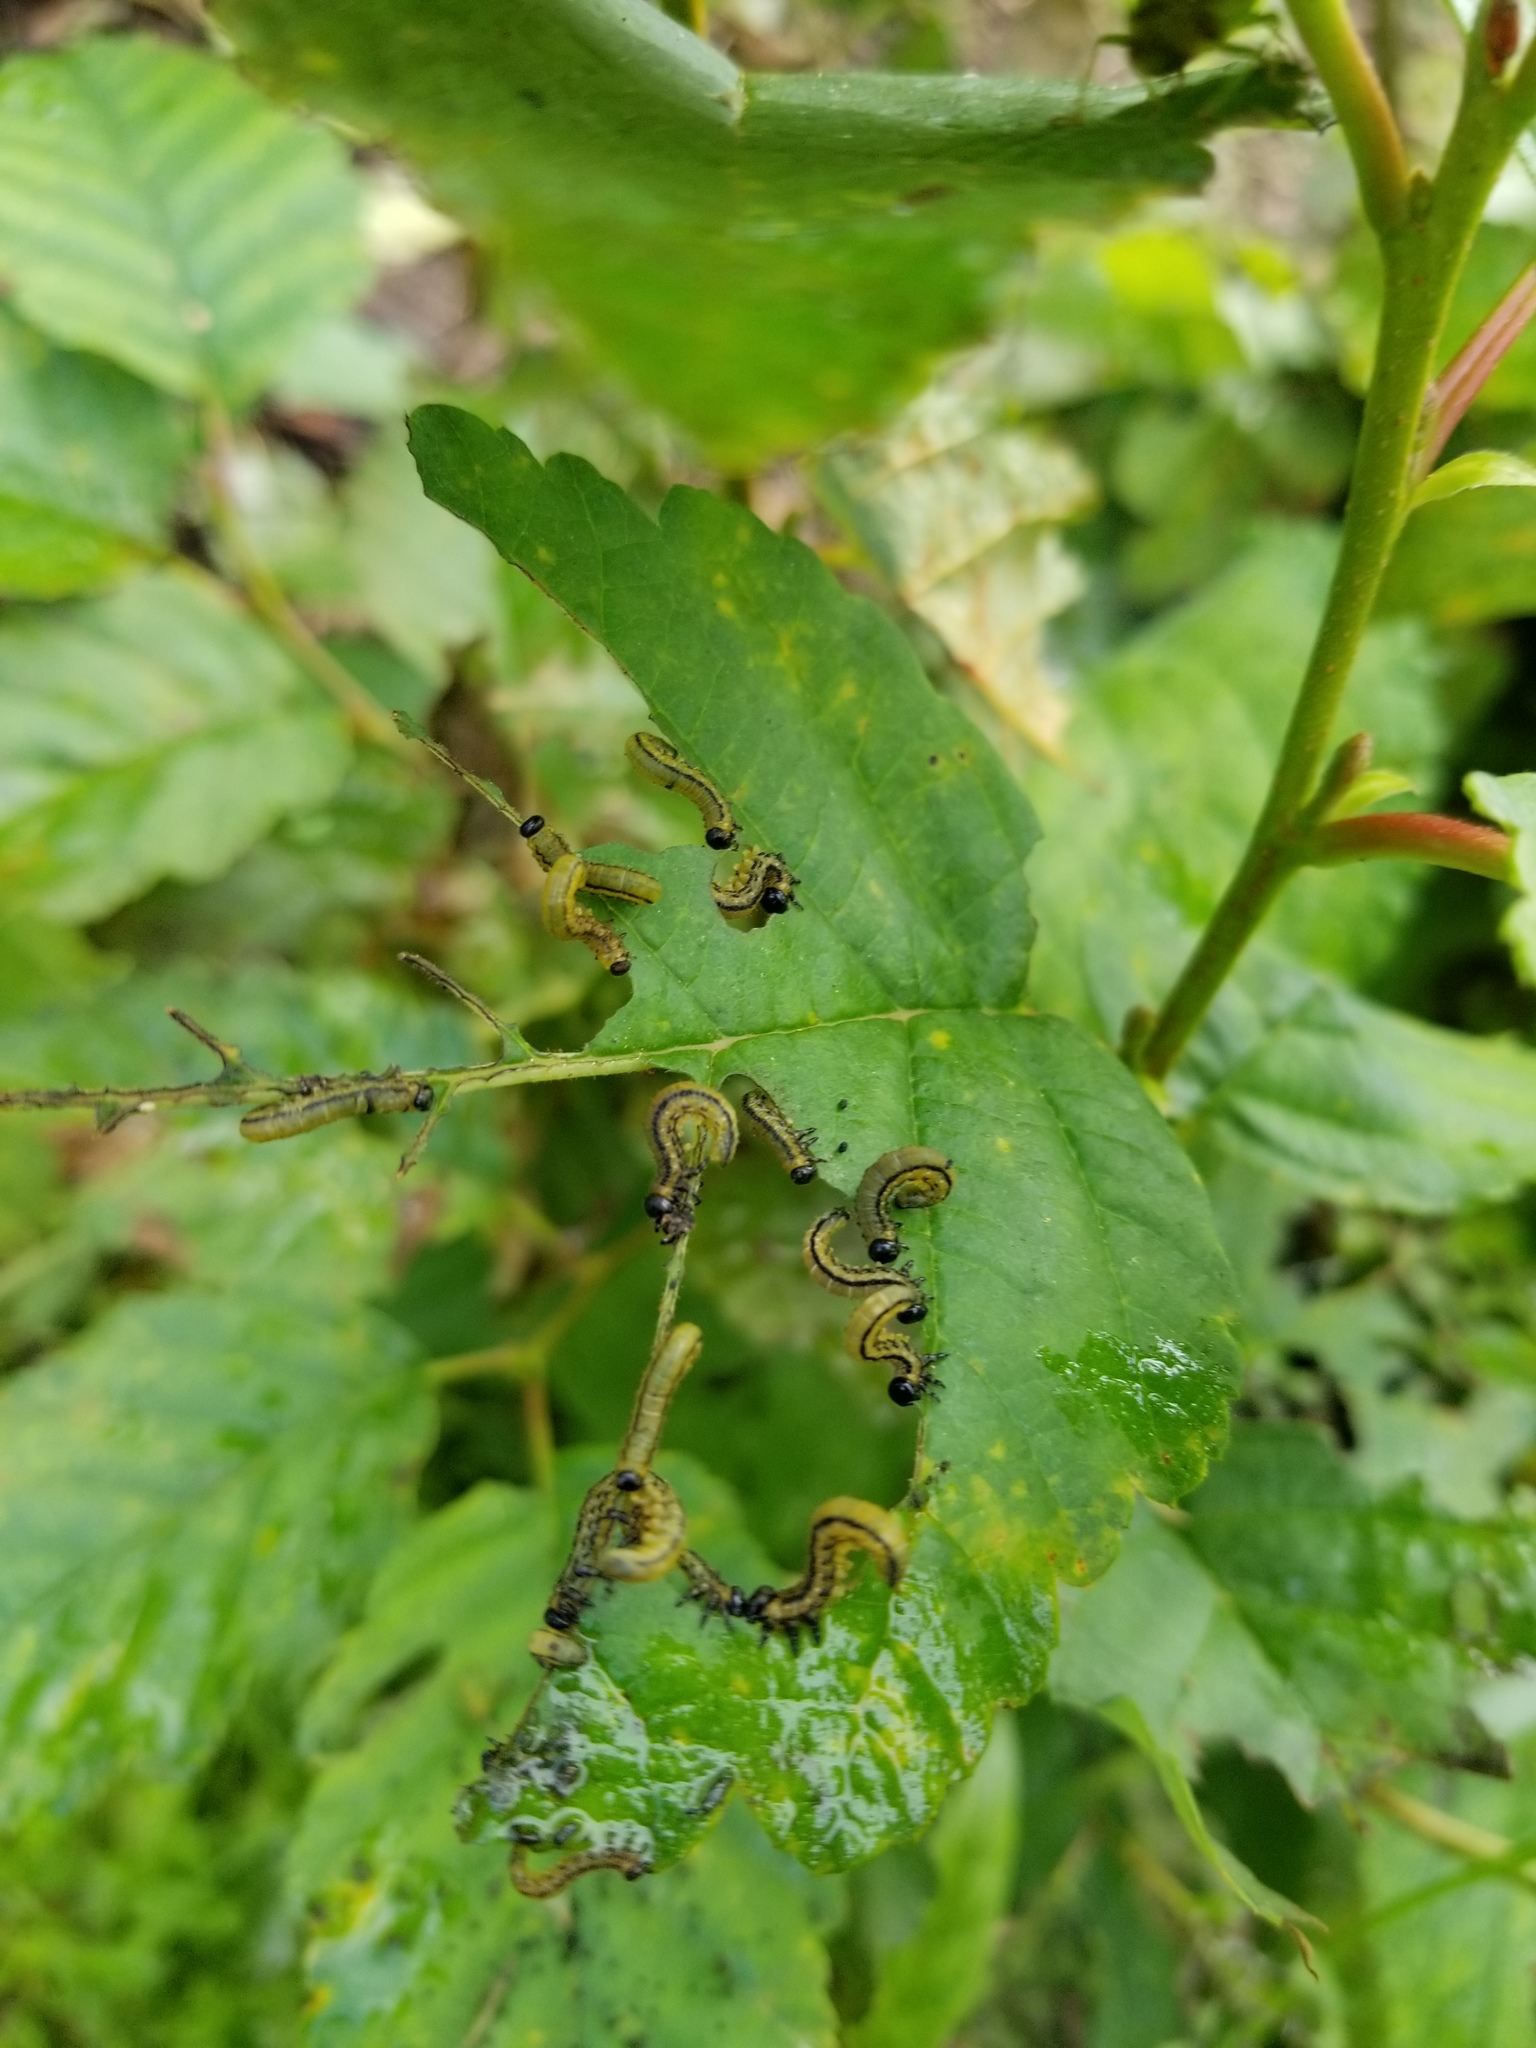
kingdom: Animalia
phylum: Arthropoda
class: Insecta
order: Hymenoptera
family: Tenthredinidae
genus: Hemichroa
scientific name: Hemichroa crocea
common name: Striped alder sawfly
